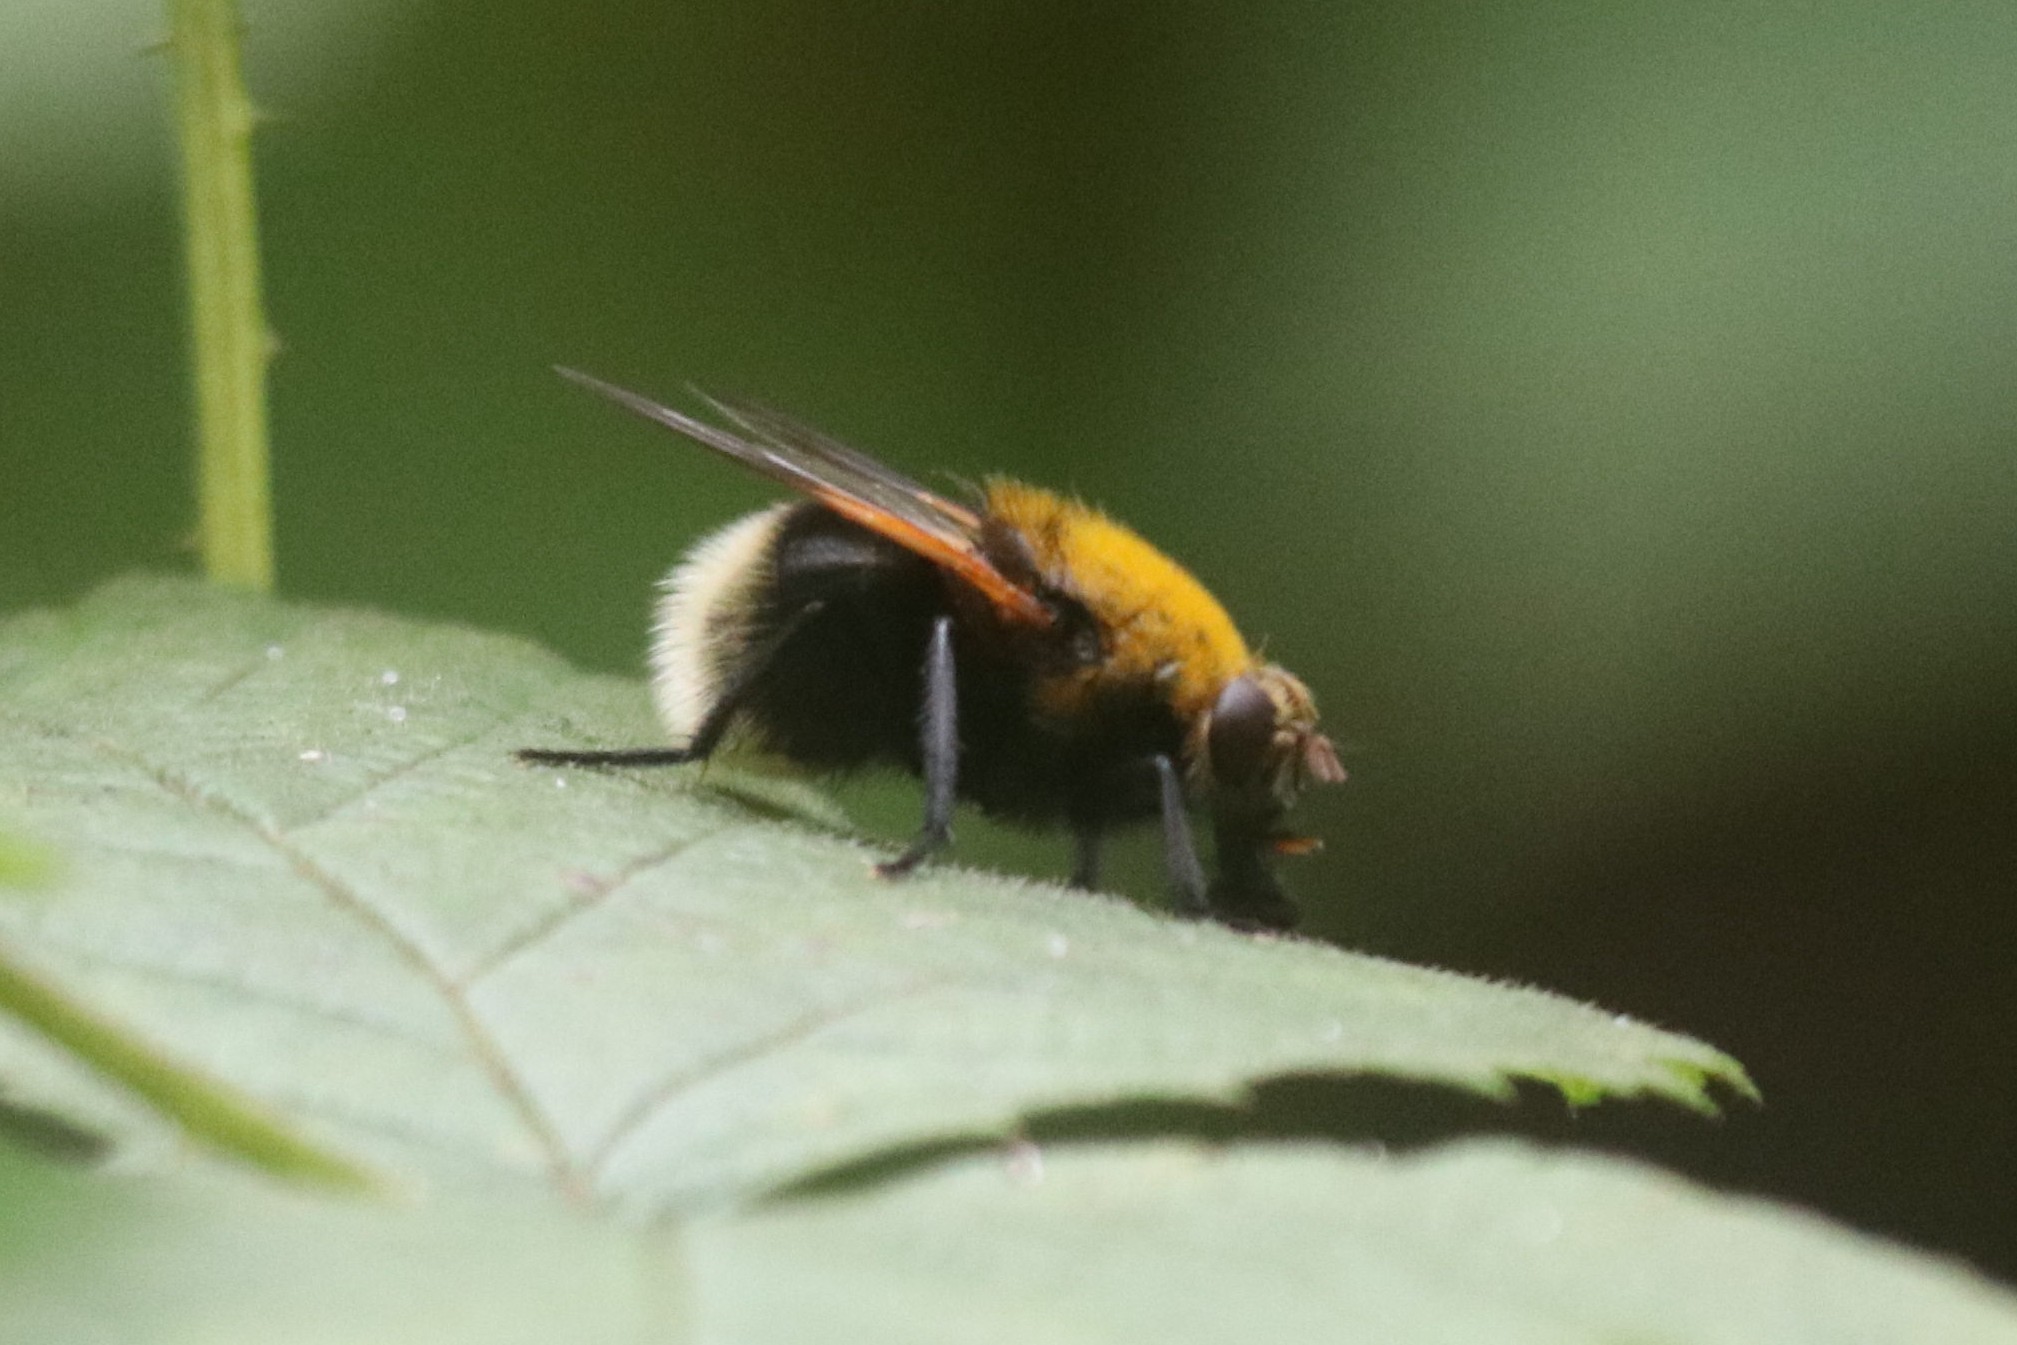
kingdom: Animalia
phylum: Arthropoda
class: Insecta
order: Diptera
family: Muscidae
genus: Mesembrina
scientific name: Mesembrina mystacea
